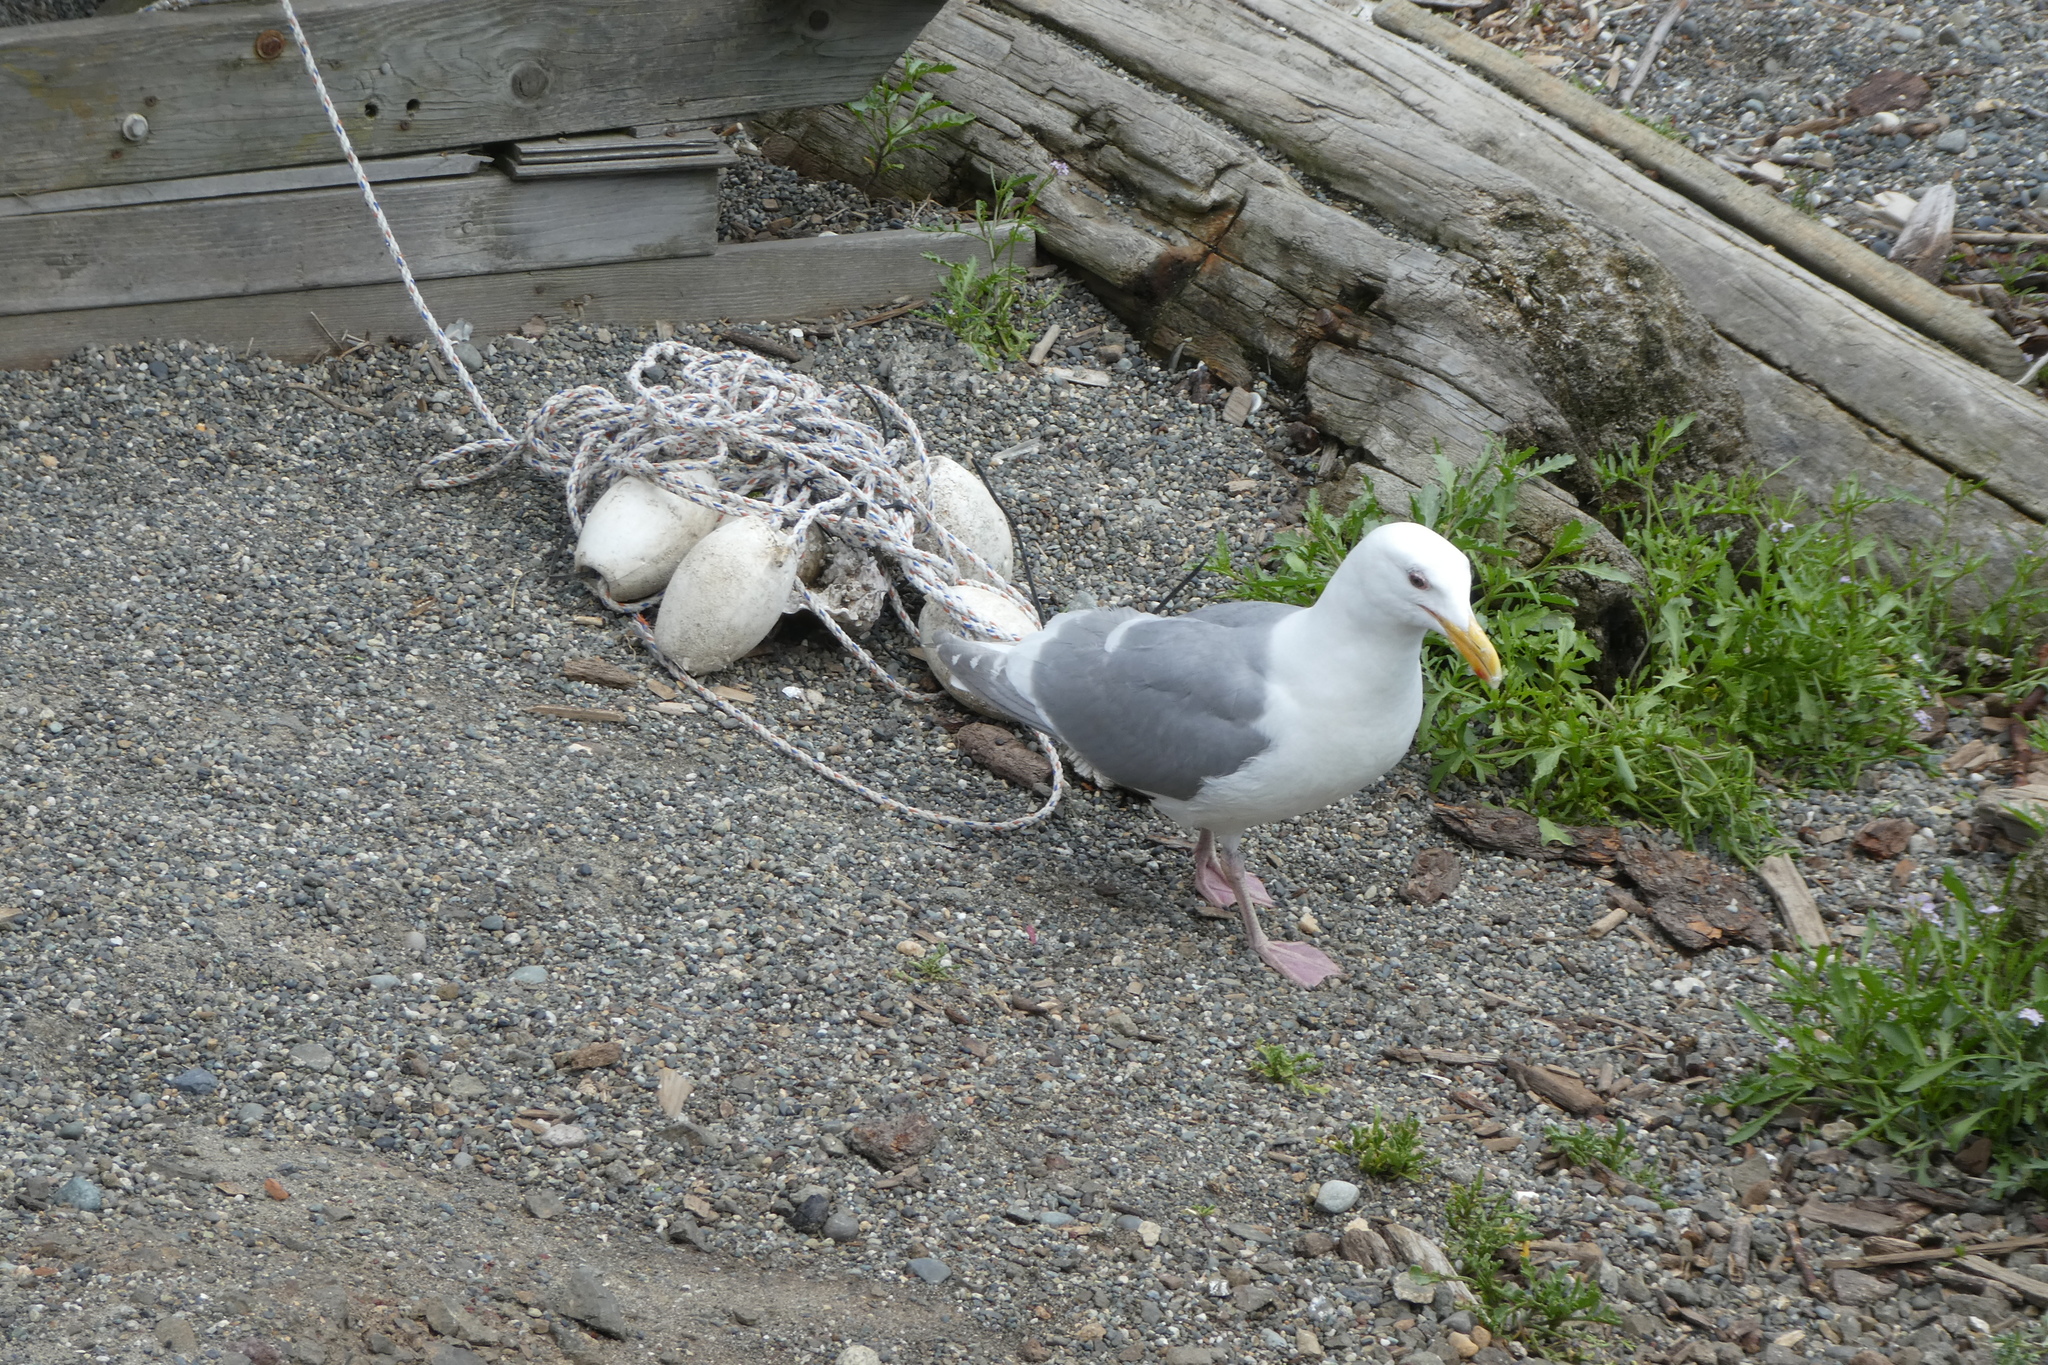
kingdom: Animalia
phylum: Chordata
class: Aves
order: Charadriiformes
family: Laridae
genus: Larus
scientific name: Larus
